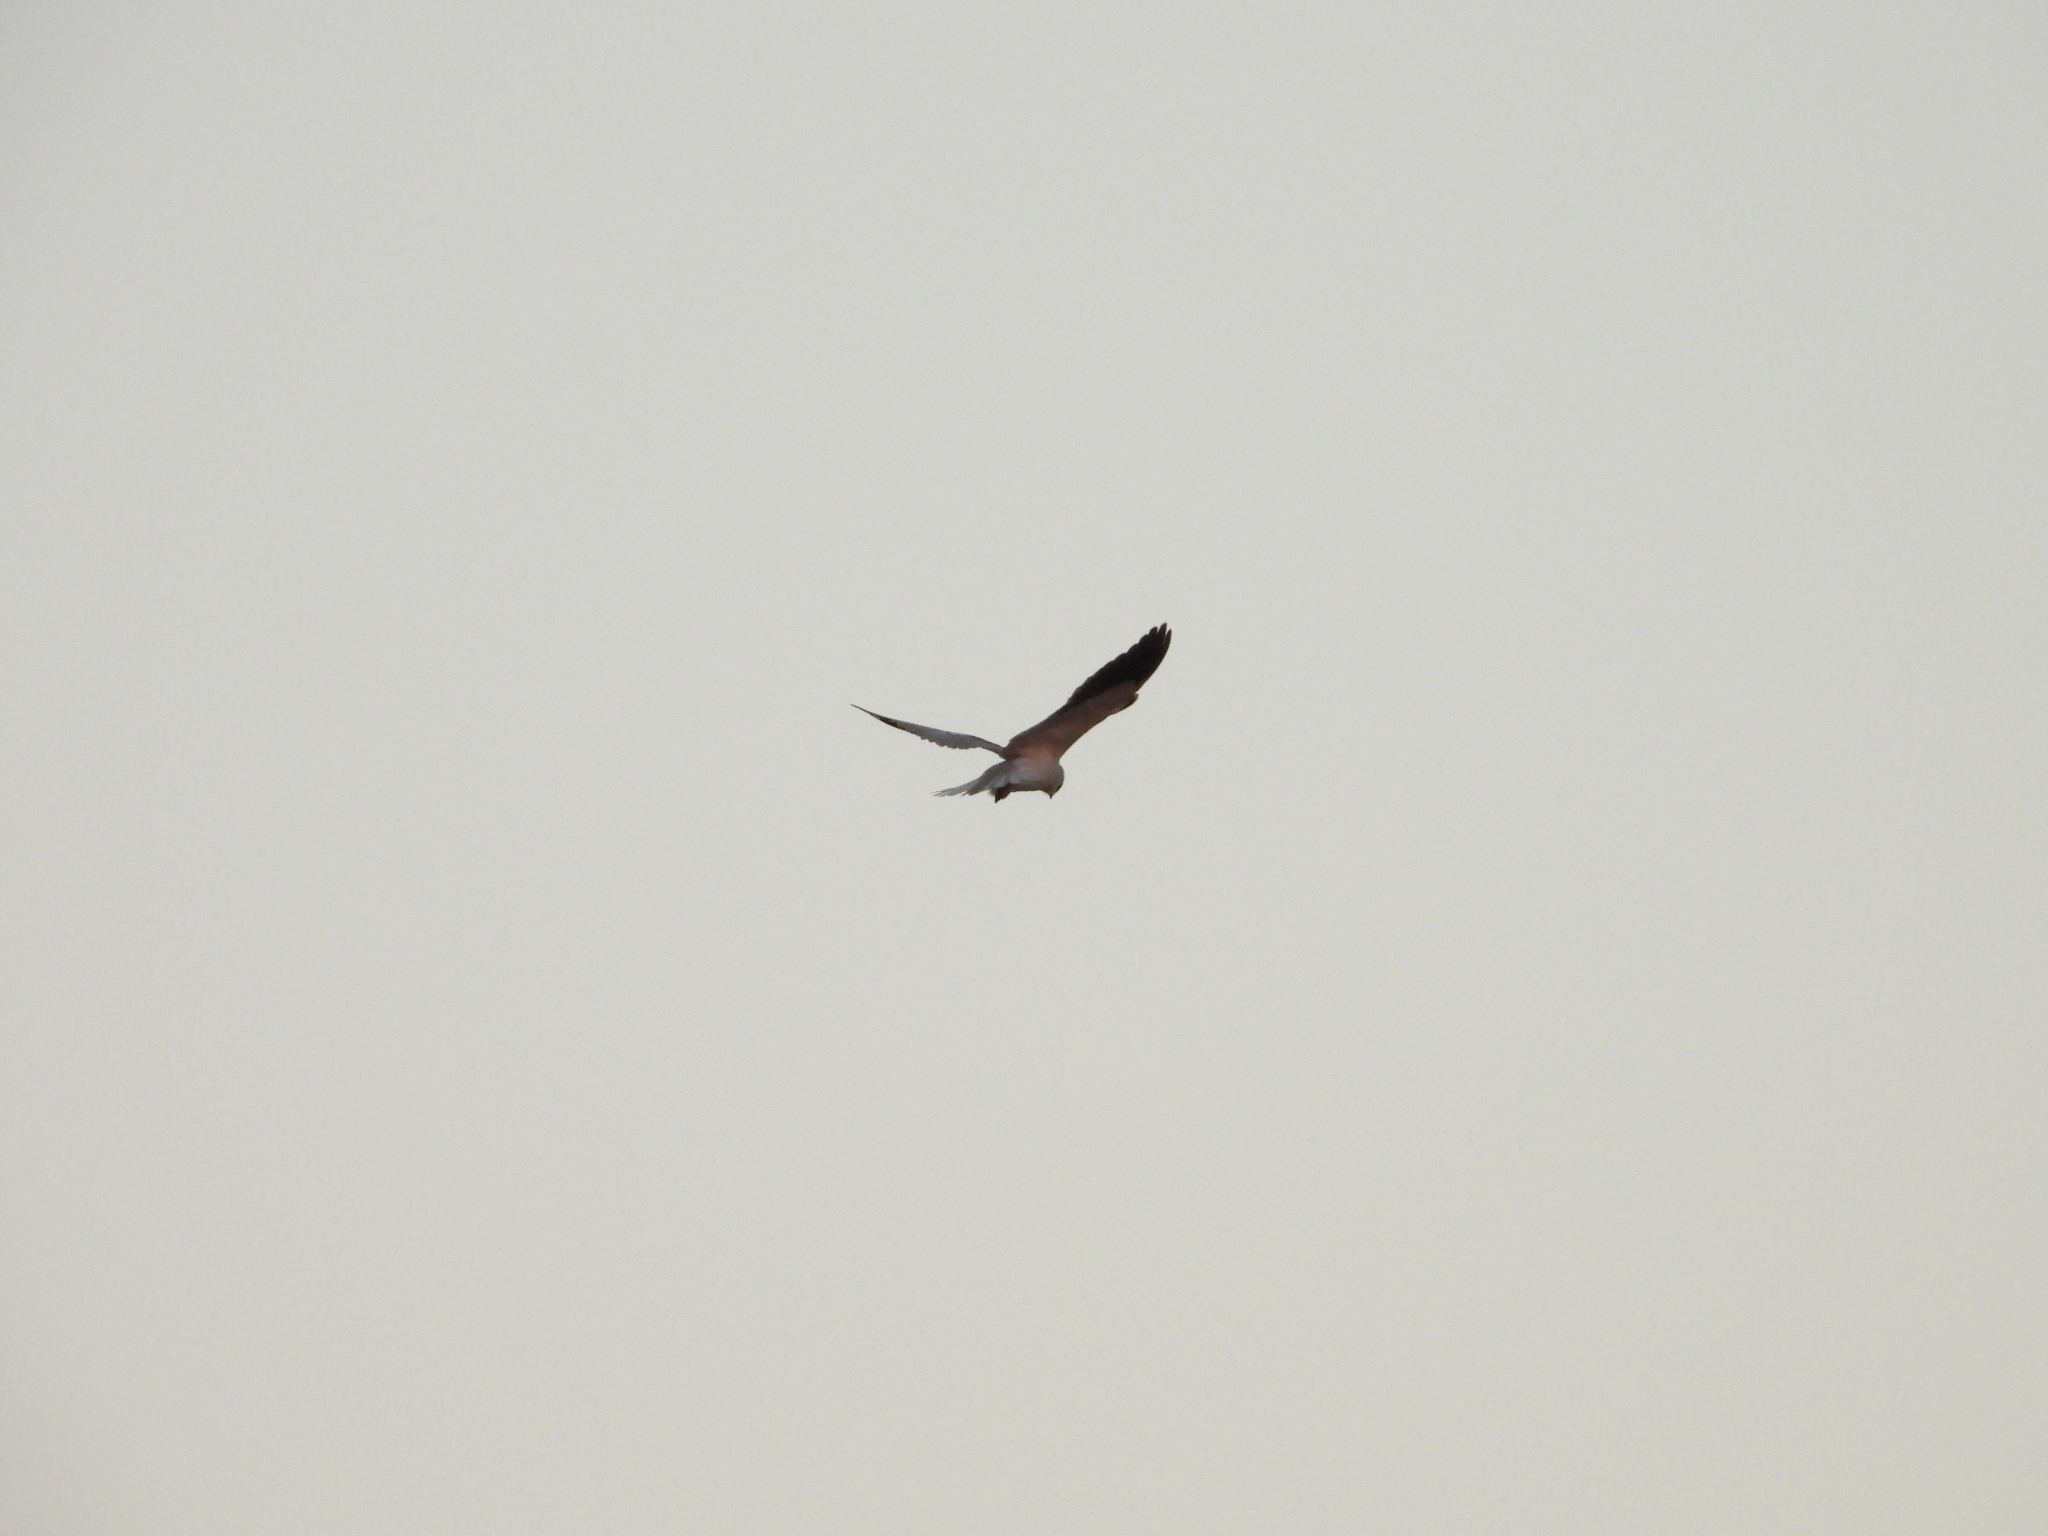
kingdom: Animalia
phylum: Chordata
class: Aves
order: Accipitriformes
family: Accipitridae
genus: Elanus
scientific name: Elanus caeruleus
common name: Black-winged kite
